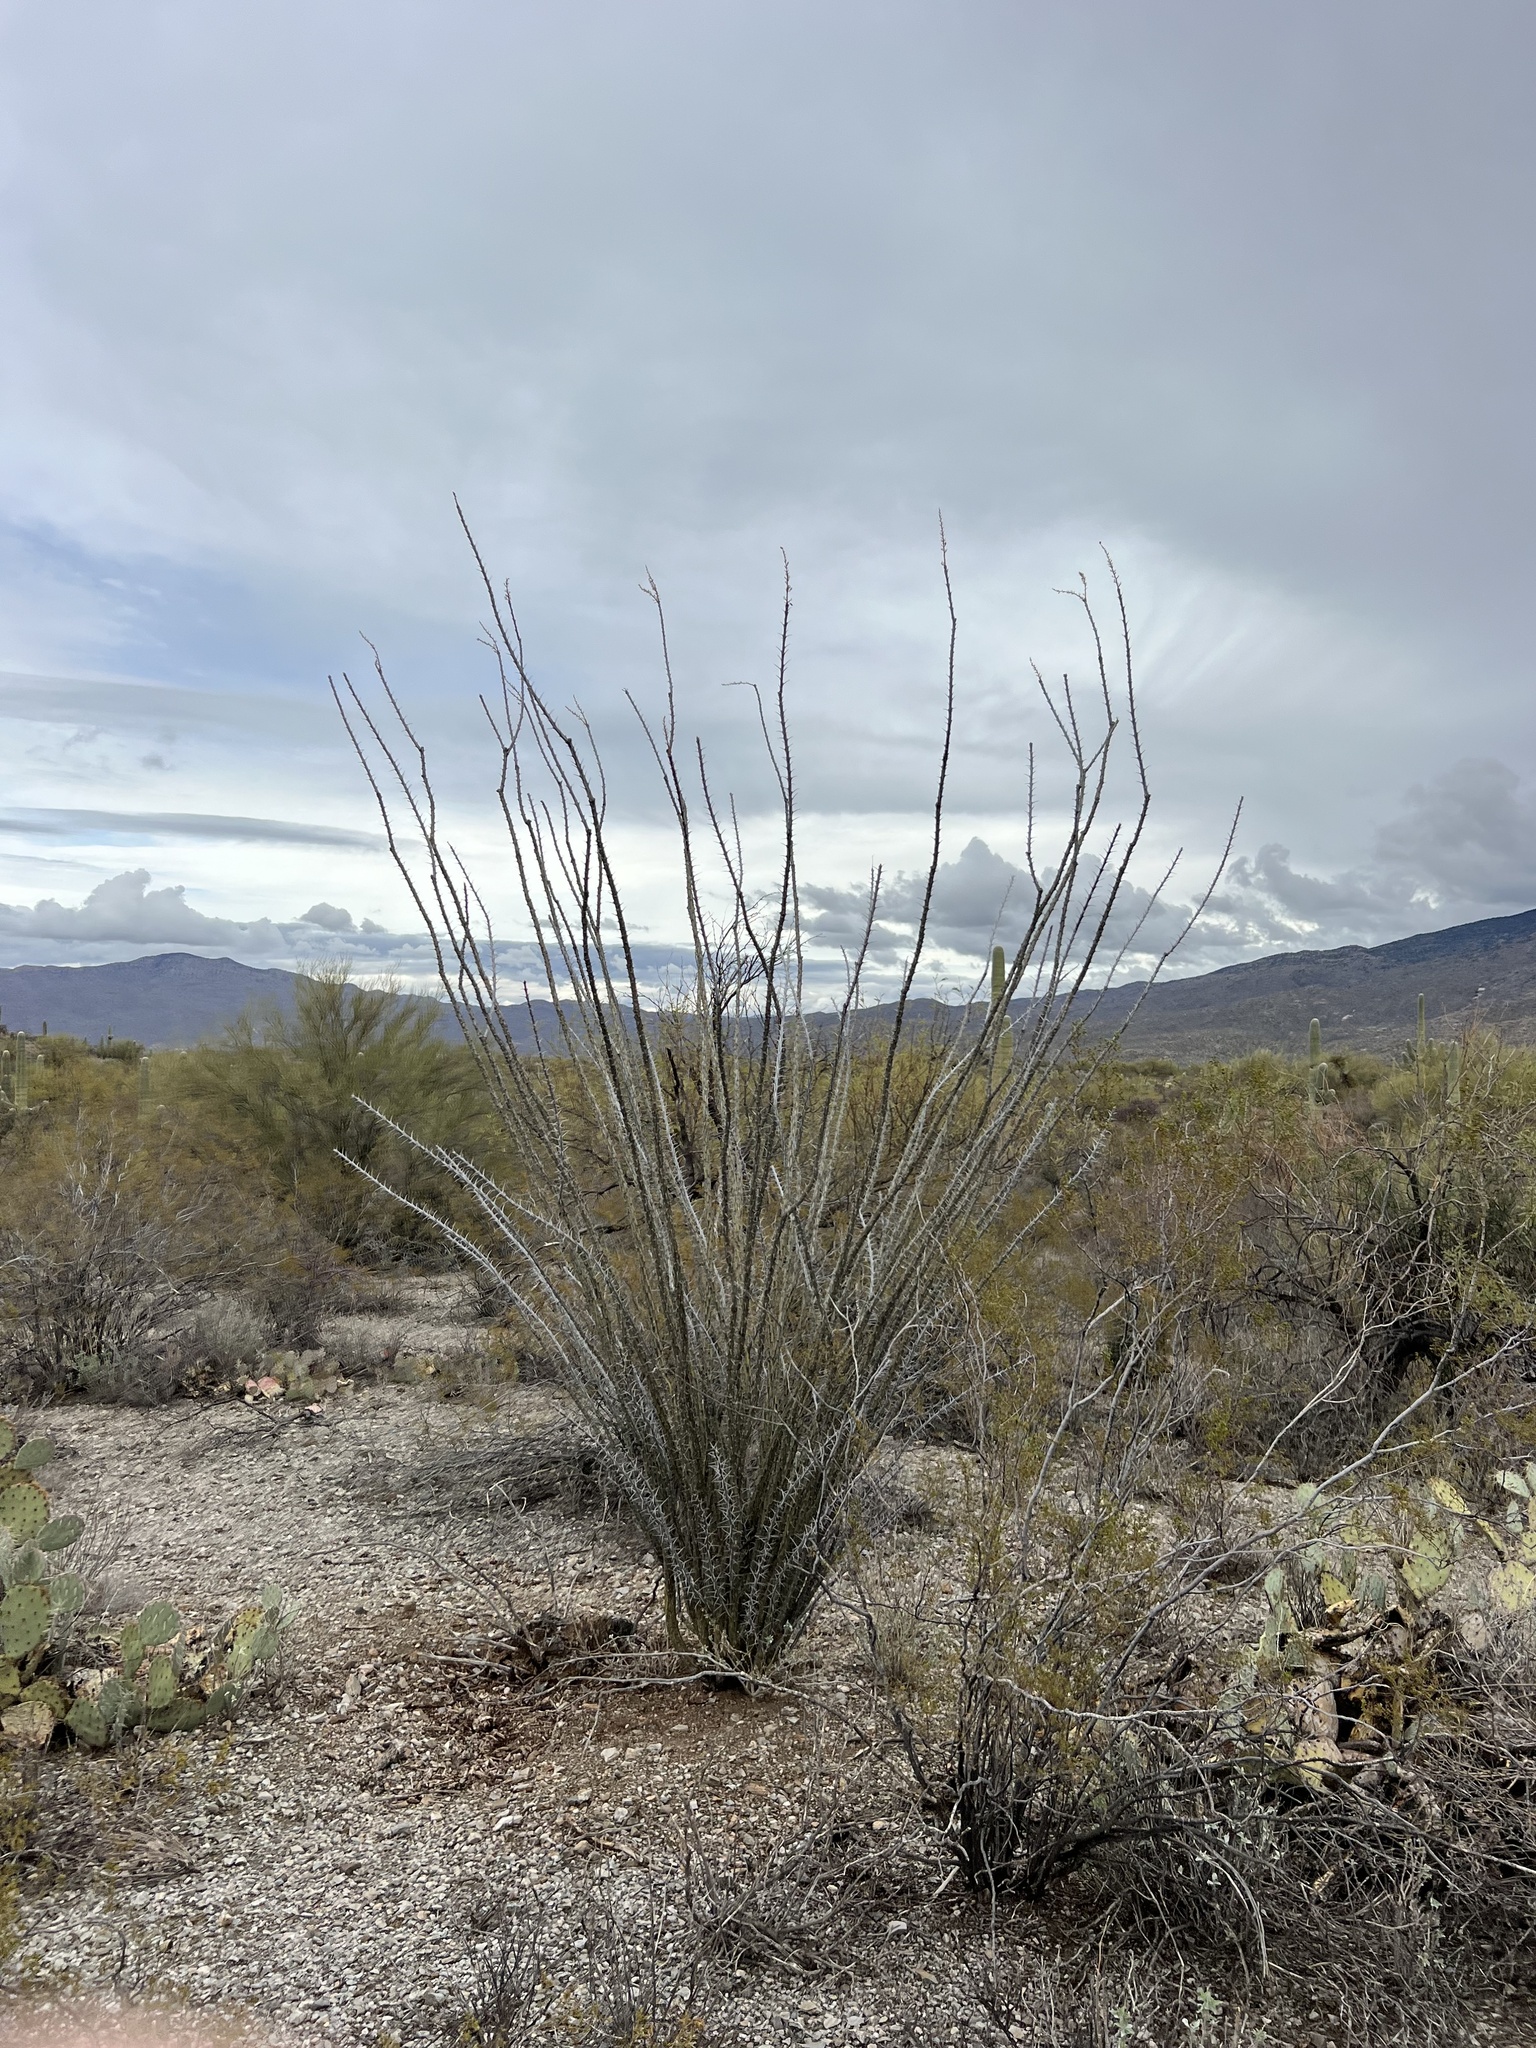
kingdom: Plantae
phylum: Tracheophyta
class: Magnoliopsida
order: Ericales
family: Fouquieriaceae
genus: Fouquieria
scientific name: Fouquieria splendens
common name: Vine-cactus
